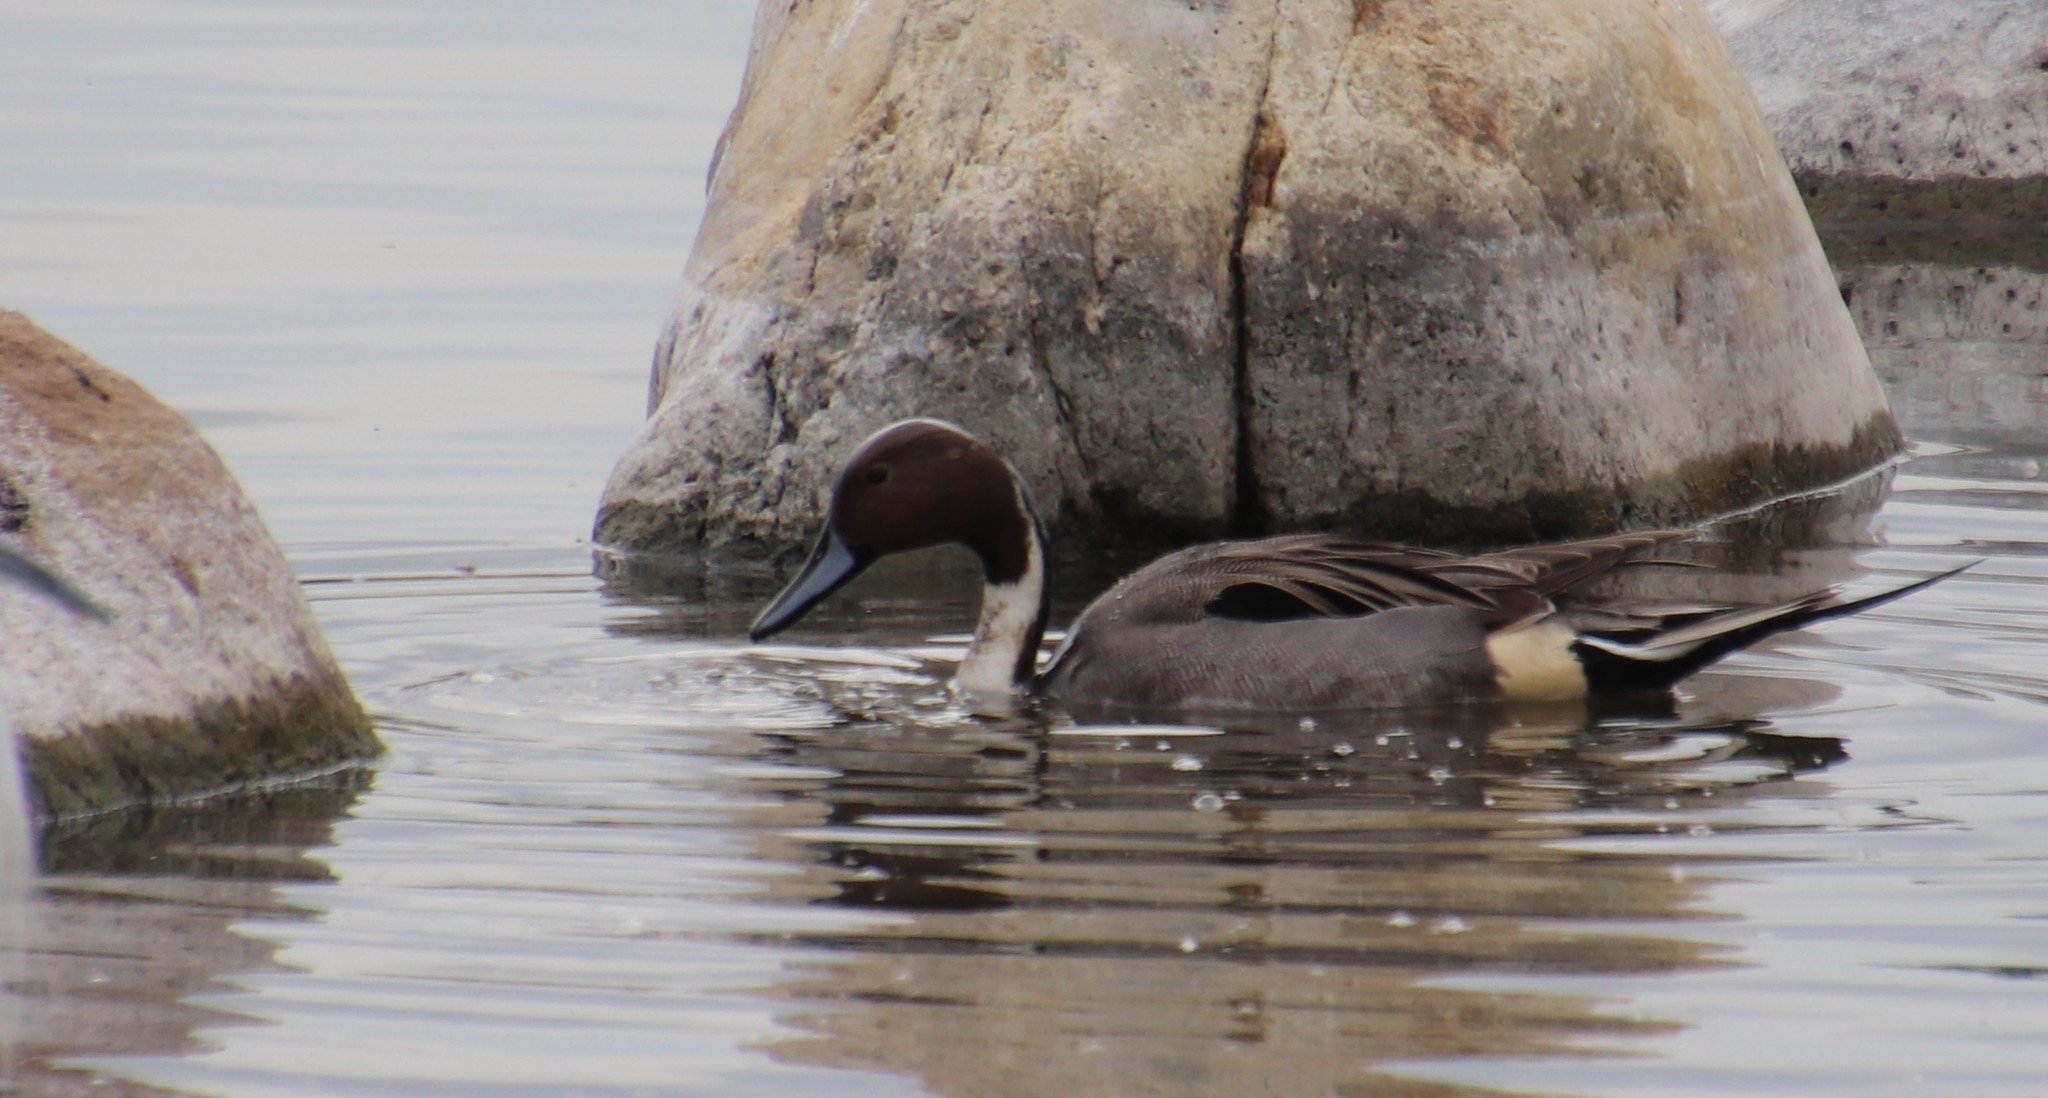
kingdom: Animalia
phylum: Chordata
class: Aves
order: Anseriformes
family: Anatidae
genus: Anas
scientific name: Anas acuta
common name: Northern pintail
